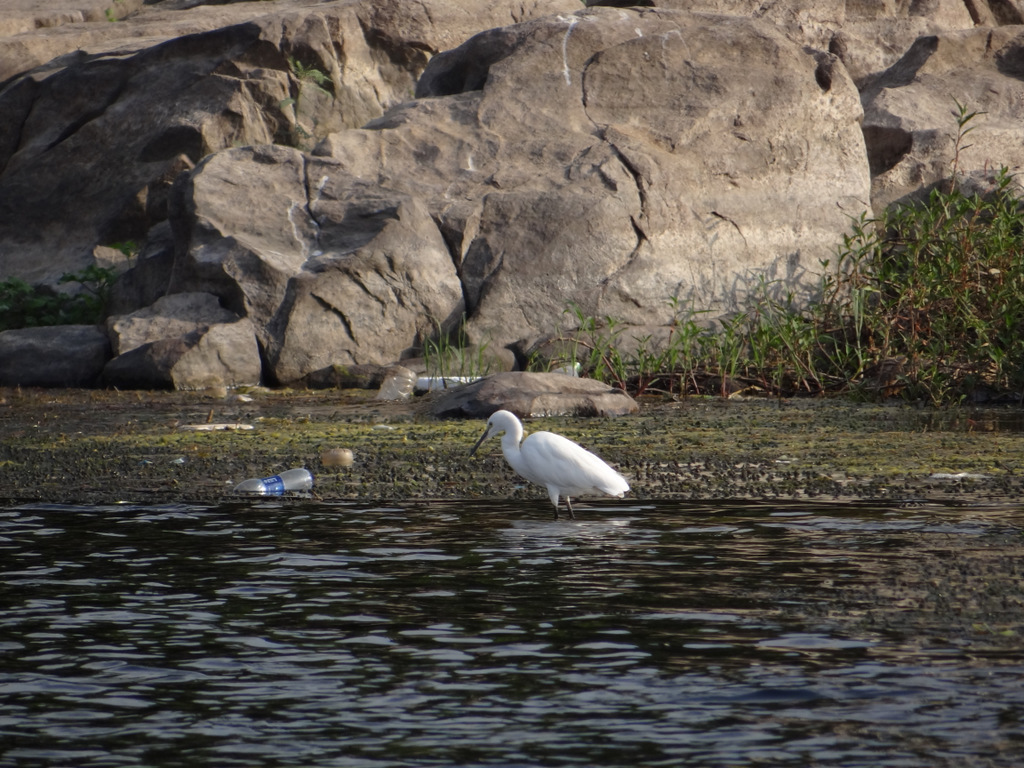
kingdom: Animalia
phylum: Chordata
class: Aves
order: Pelecaniformes
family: Ardeidae
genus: Egretta
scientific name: Egretta garzetta
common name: Little egret
